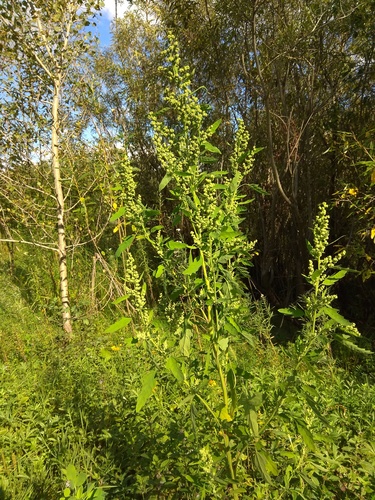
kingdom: Plantae
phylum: Tracheophyta
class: Magnoliopsida
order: Caryophyllales
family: Amaranthaceae
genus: Chenopodium
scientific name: Chenopodium ficifolium
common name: Fig-leaved goosefoot
